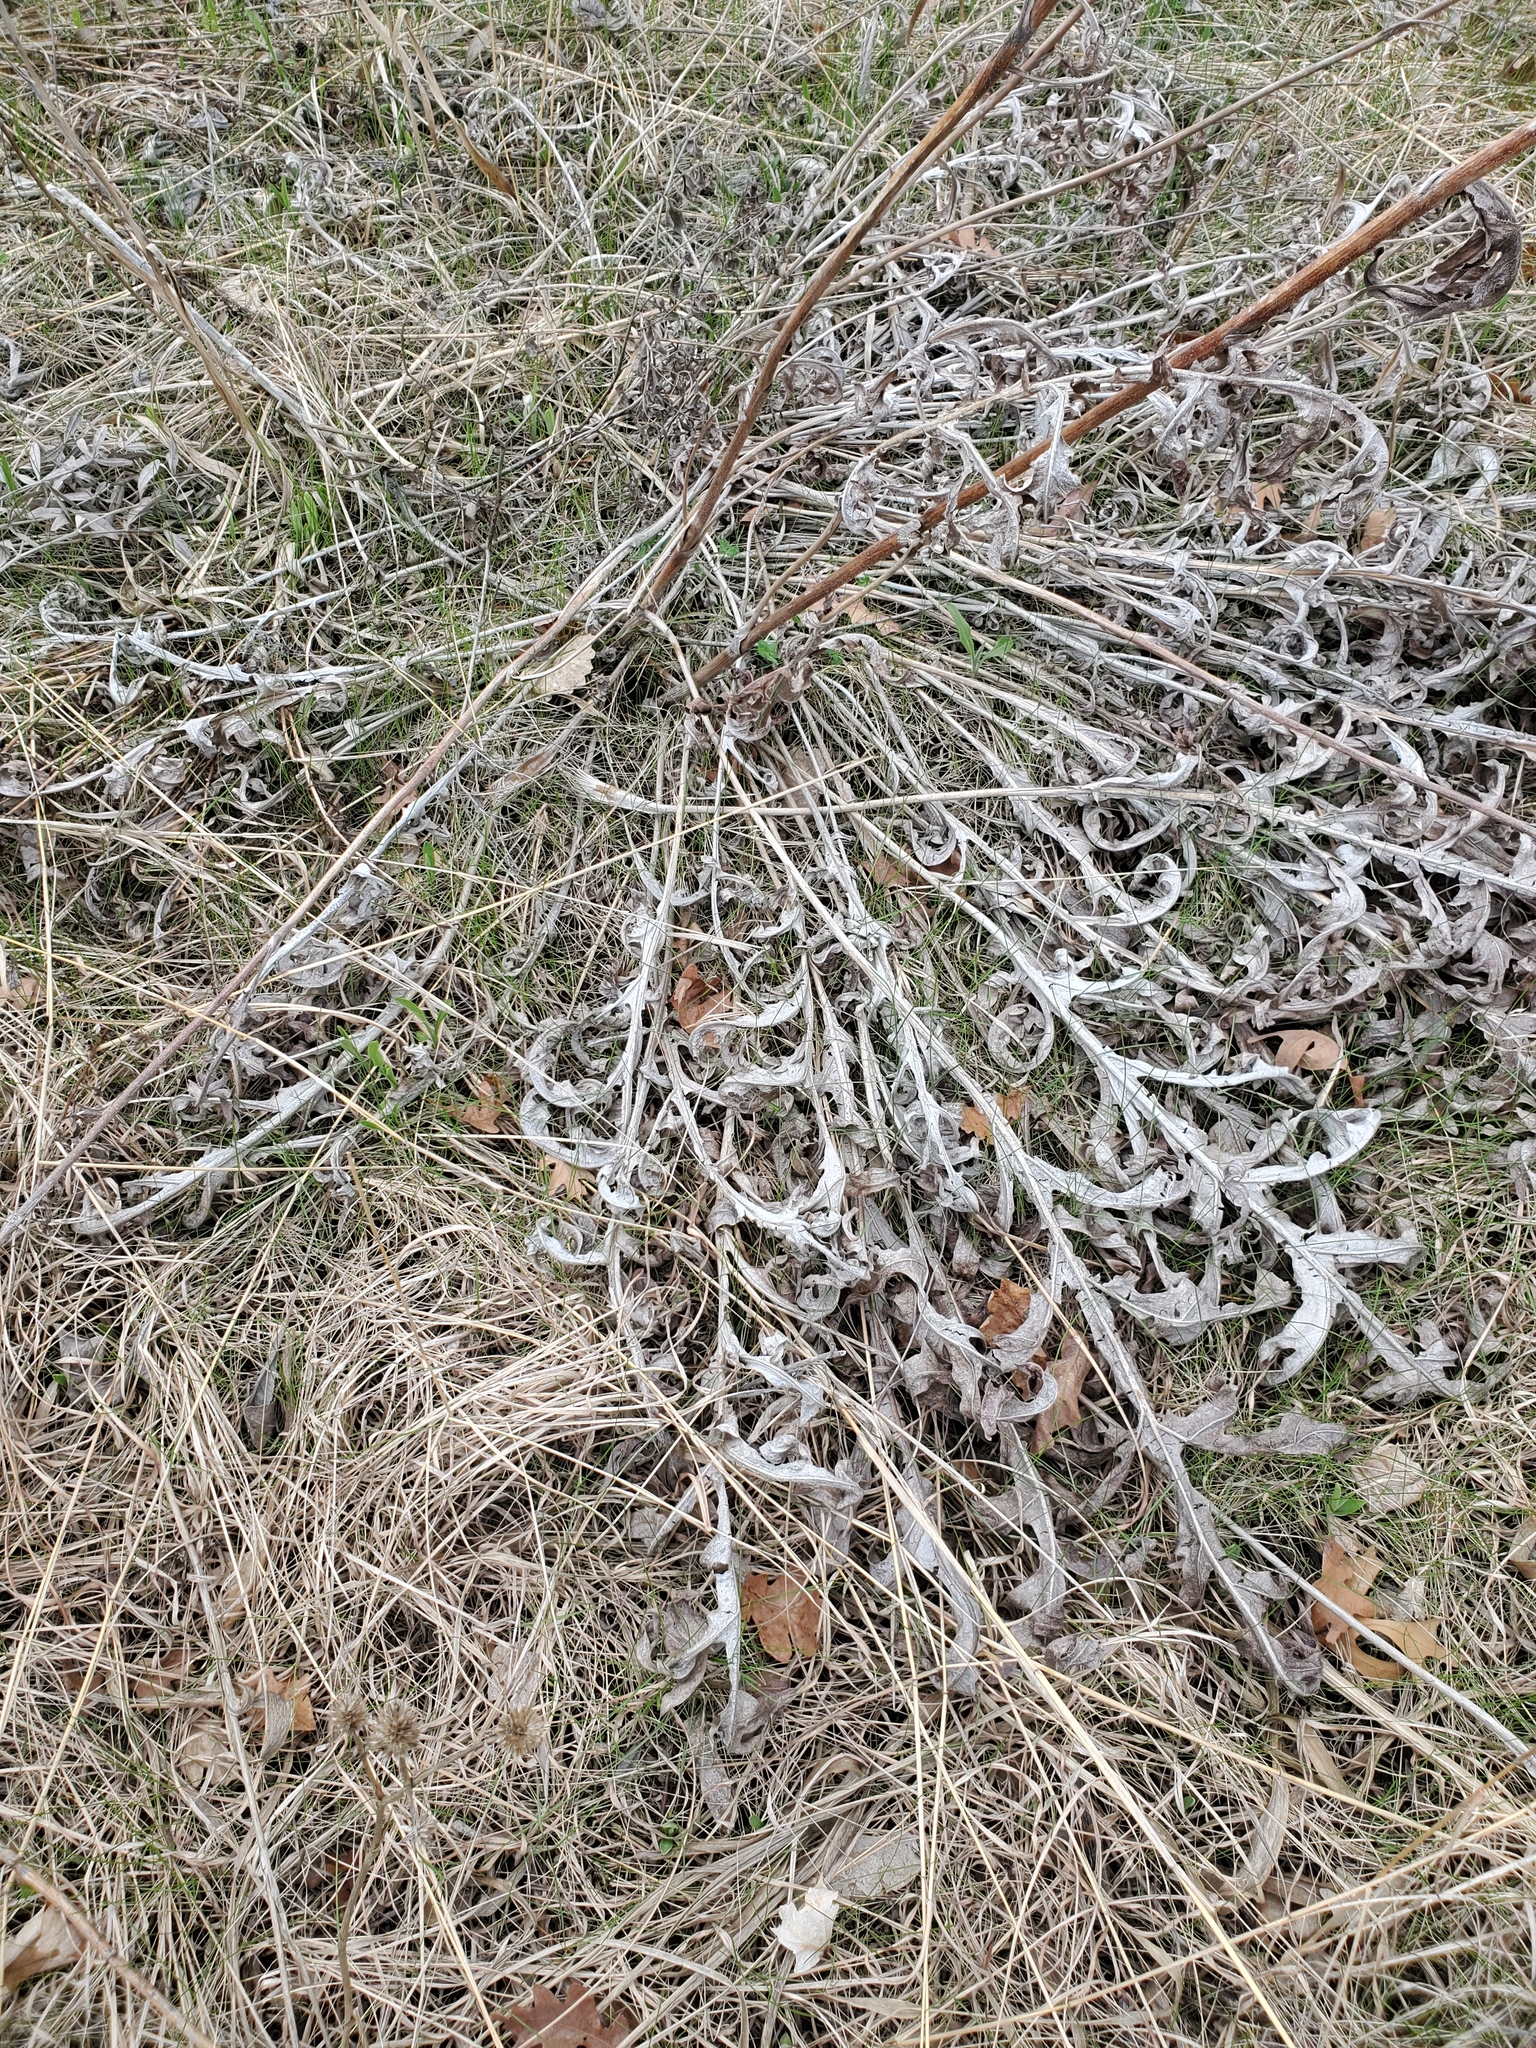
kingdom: Plantae
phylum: Tracheophyta
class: Magnoliopsida
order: Asterales
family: Asteraceae
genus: Silphium
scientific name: Silphium laciniatum
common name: Polarplant
